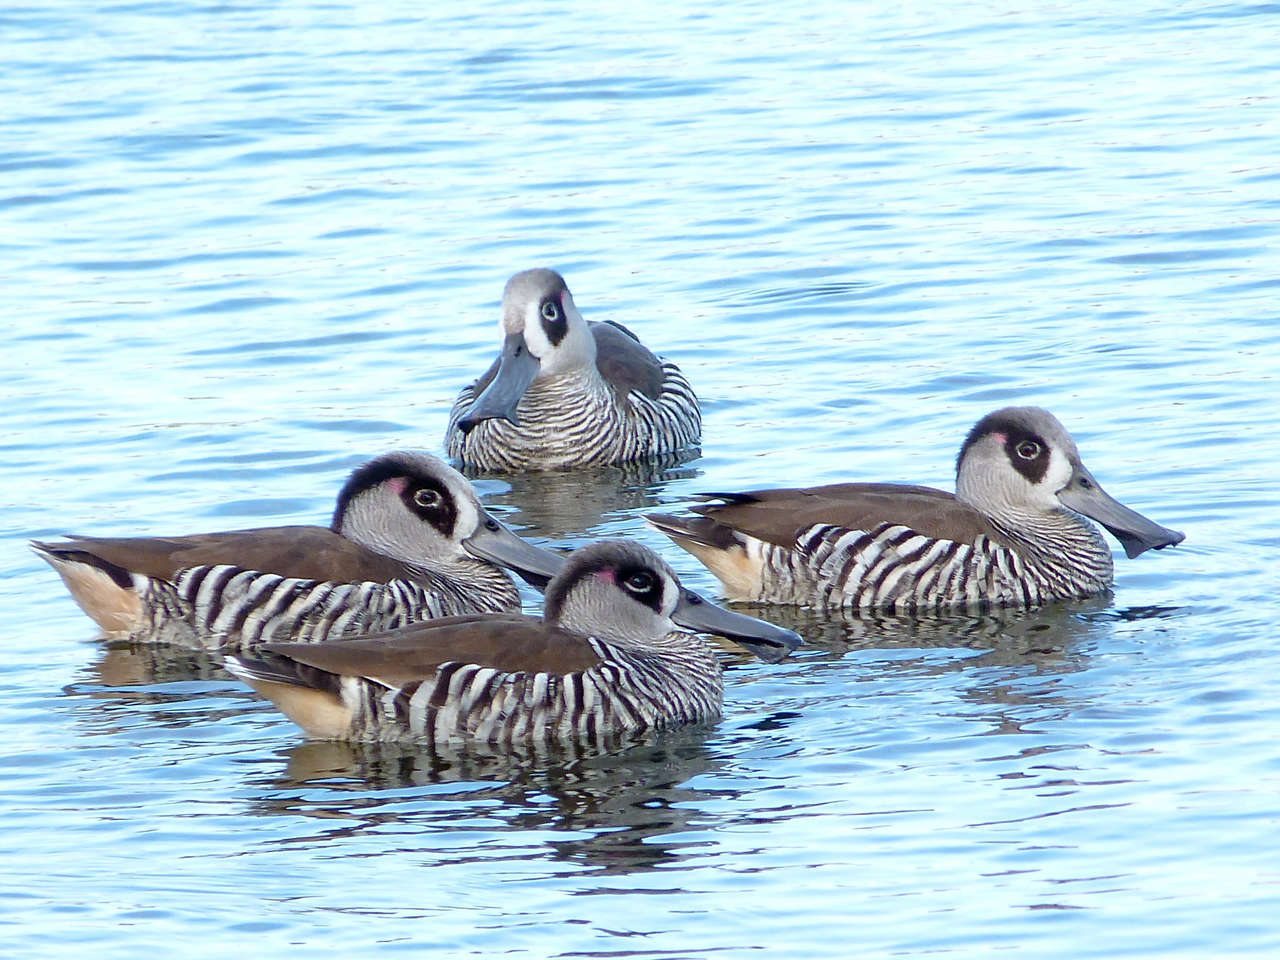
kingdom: Animalia
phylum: Chordata
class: Aves
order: Anseriformes
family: Anatidae
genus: Malacorhynchus
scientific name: Malacorhynchus membranaceus
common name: Pink-eared duck
